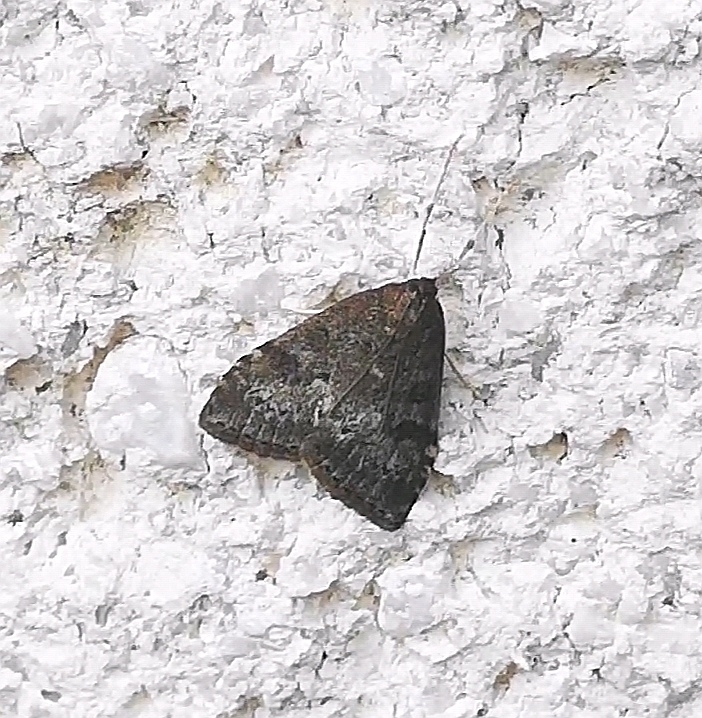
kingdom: Animalia
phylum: Arthropoda
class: Insecta
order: Lepidoptera
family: Crambidae
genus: Udea
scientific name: Udea prunalis
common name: Dusky pearl
